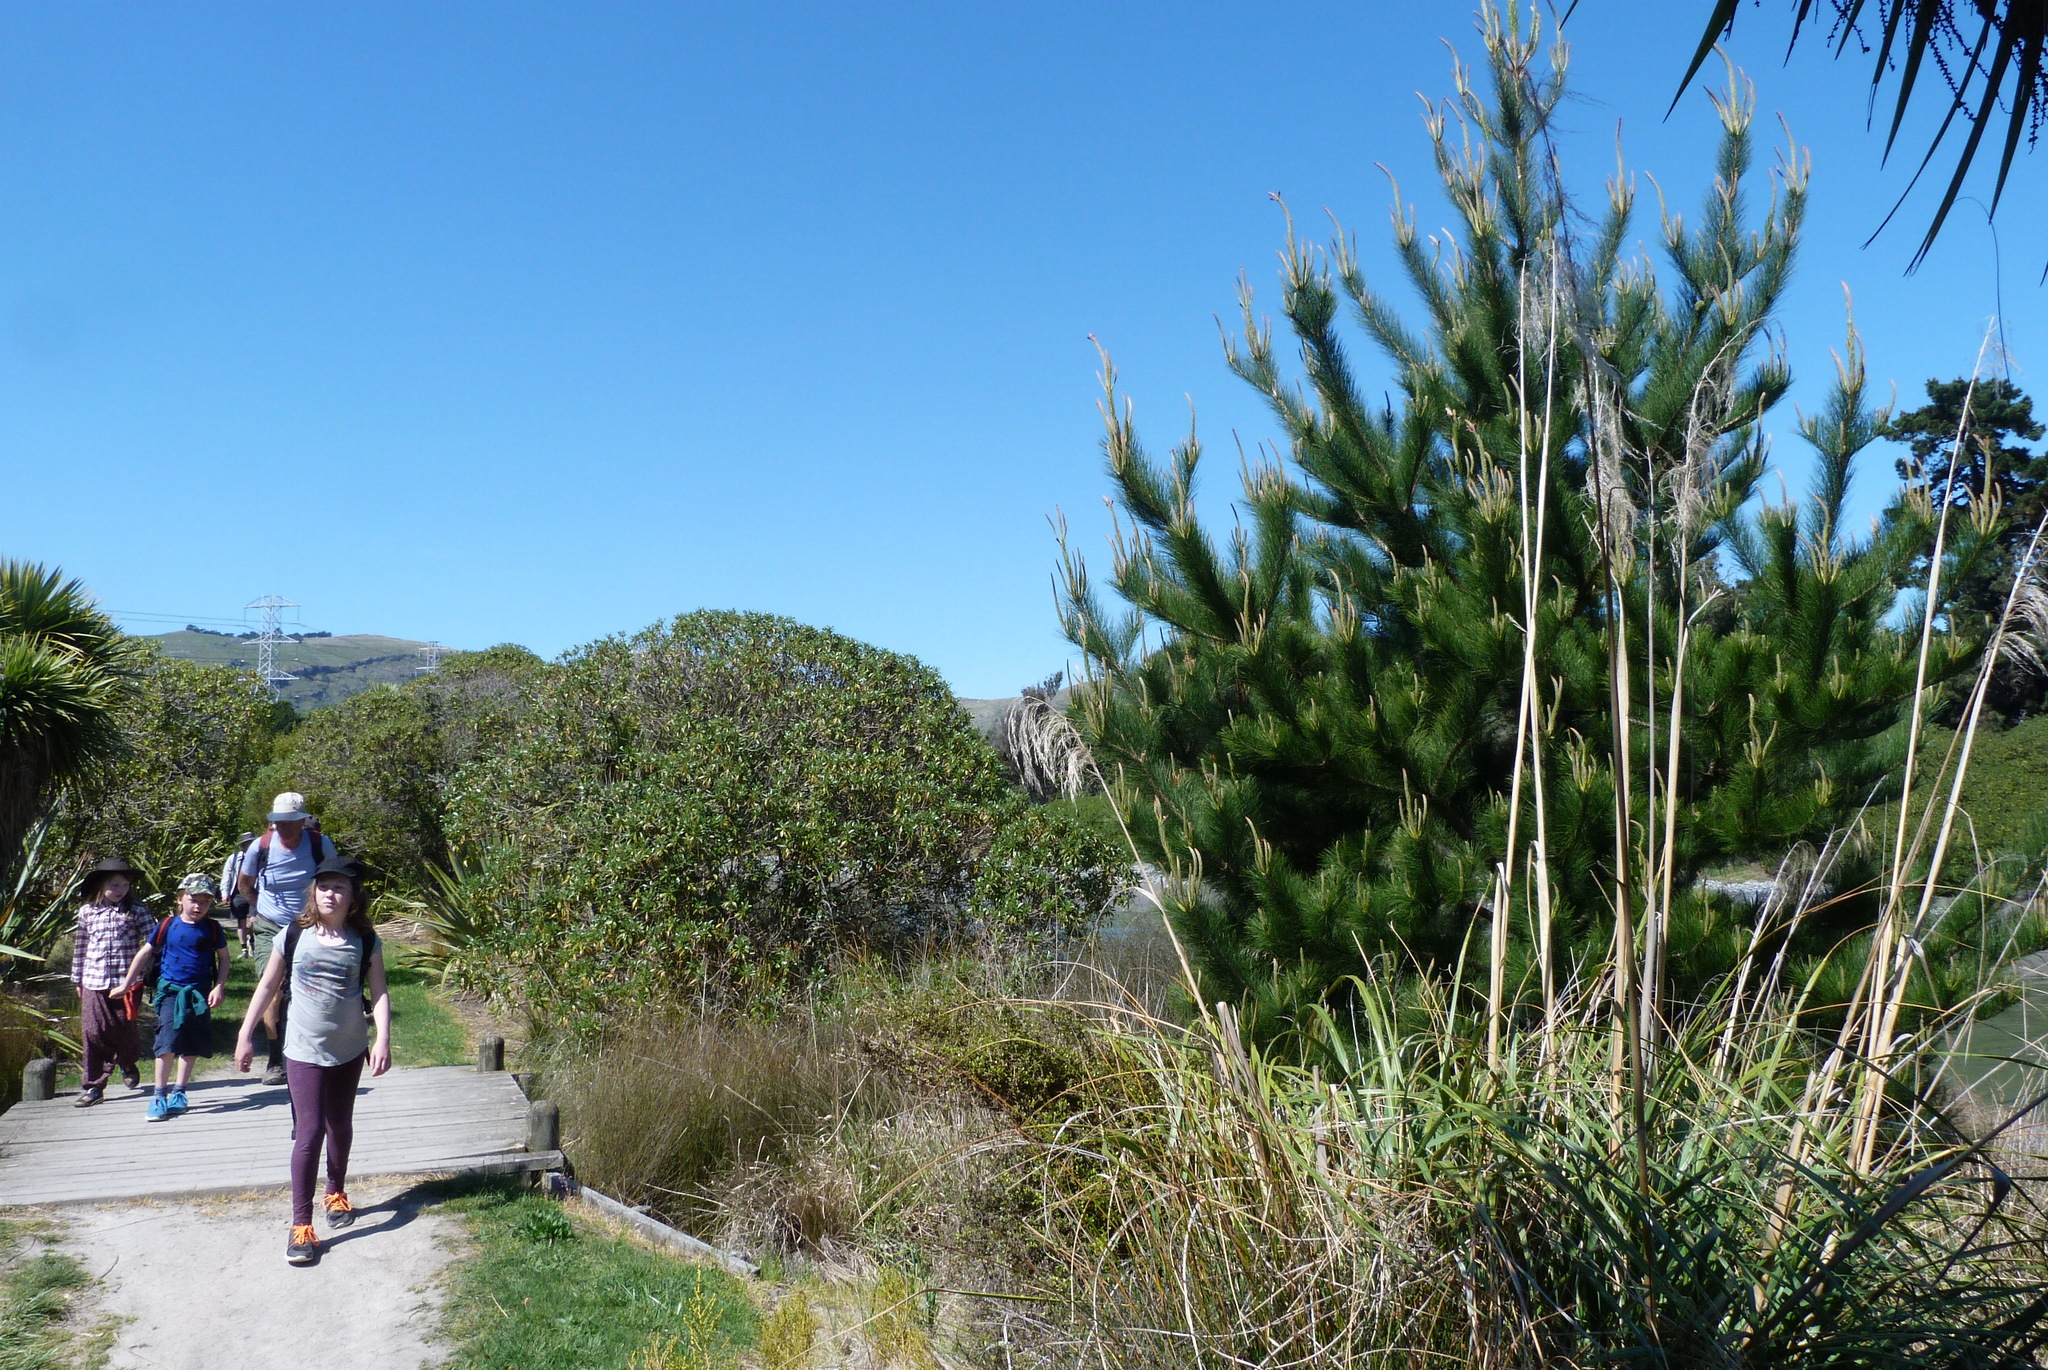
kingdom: Plantae
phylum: Tracheophyta
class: Pinopsida
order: Pinales
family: Pinaceae
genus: Pinus
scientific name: Pinus radiata
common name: Monterey pine
